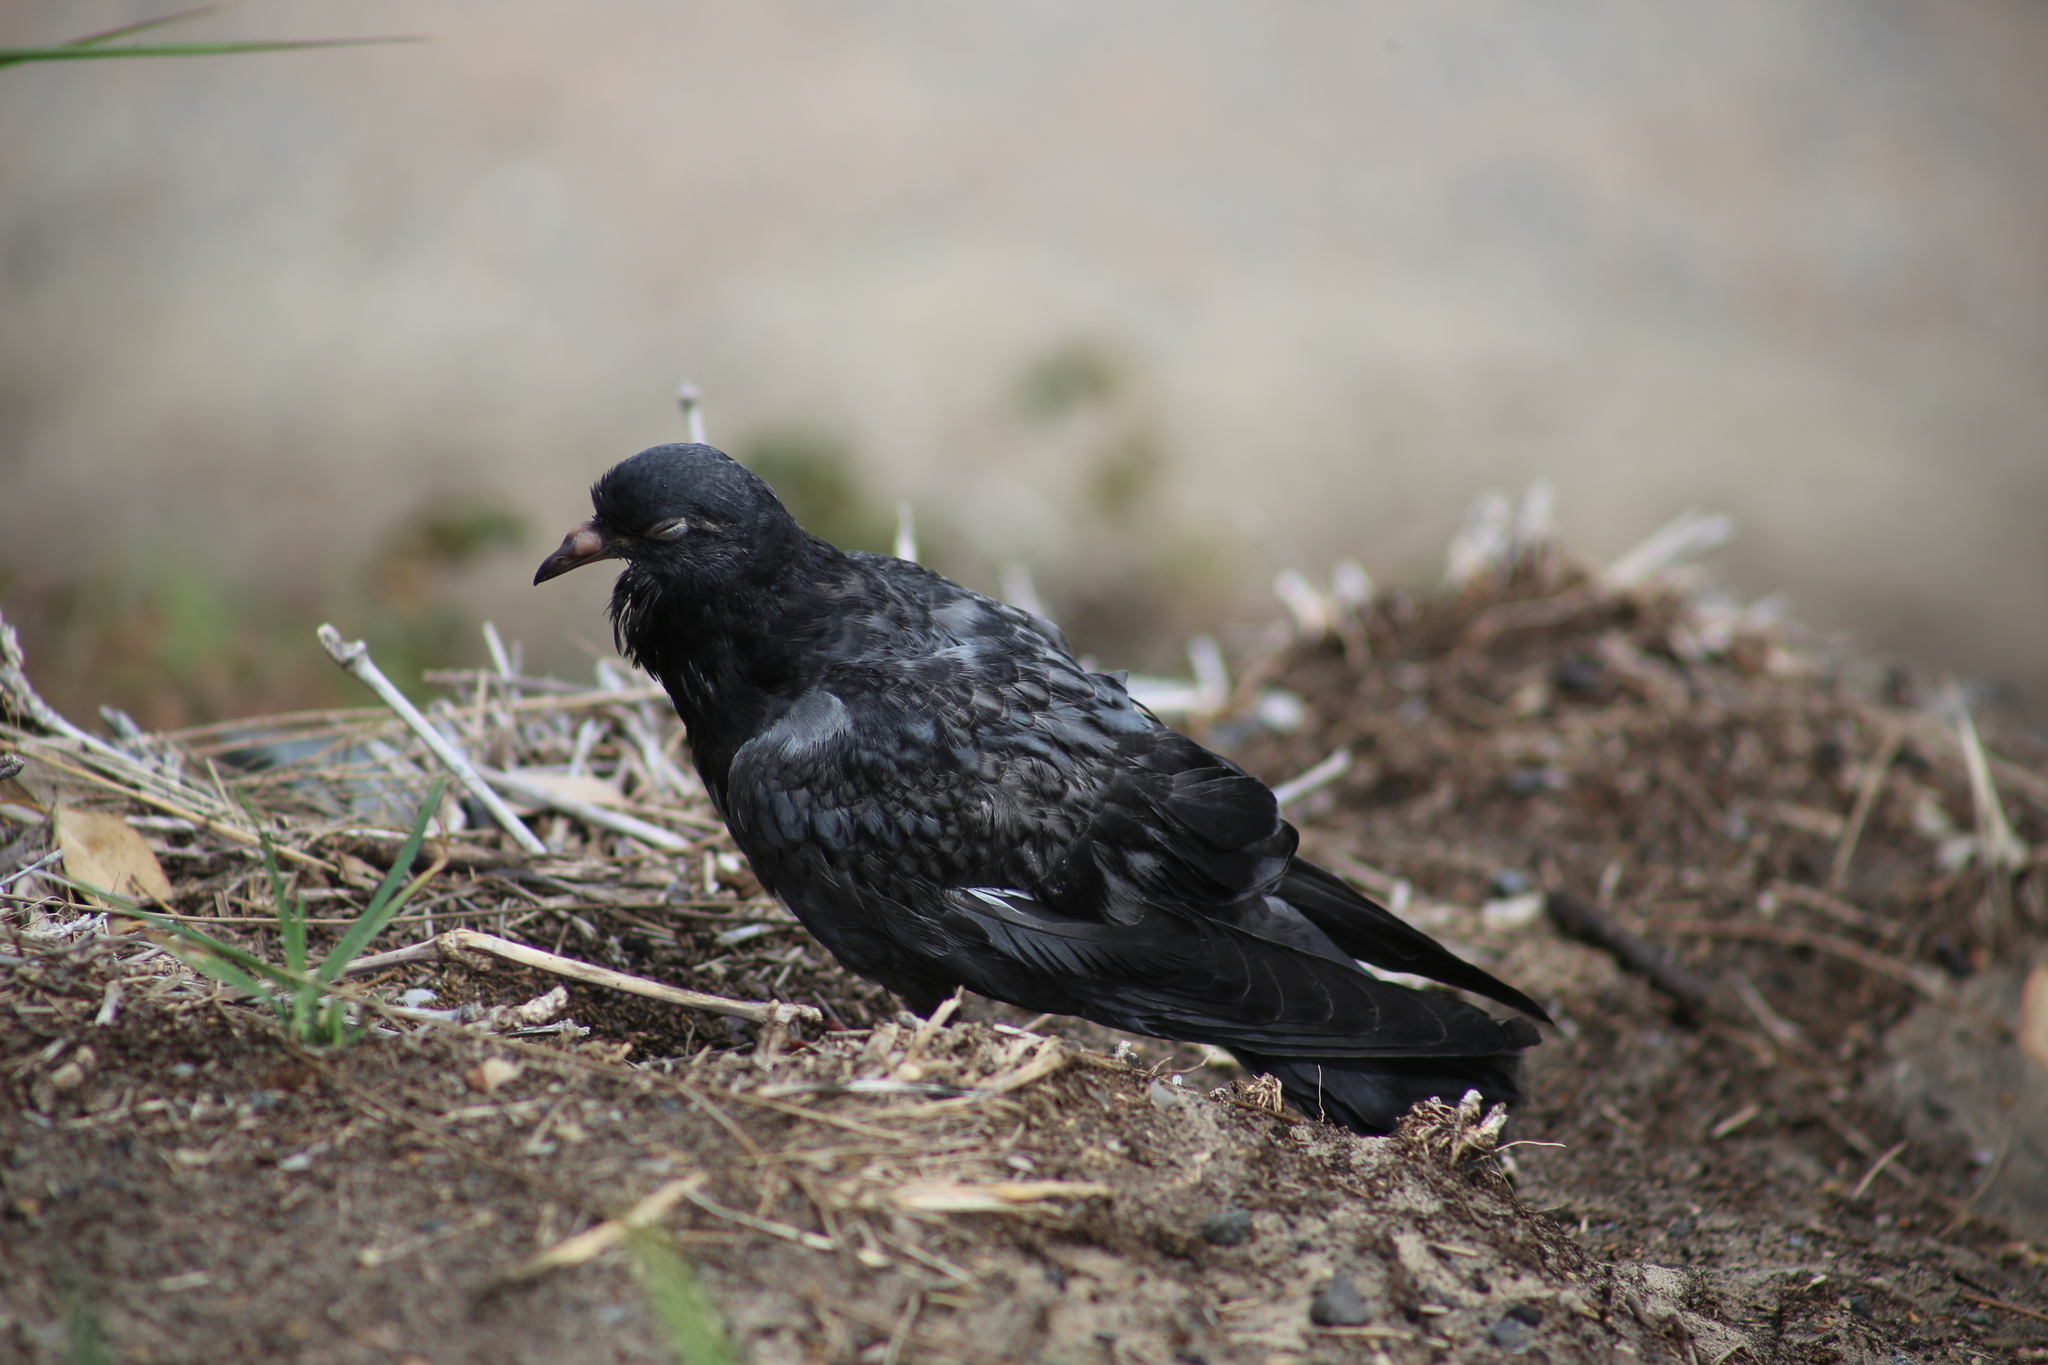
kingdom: Animalia
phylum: Chordata
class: Aves
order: Columbiformes
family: Columbidae
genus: Columba
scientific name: Columba livia
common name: Rock pigeon
